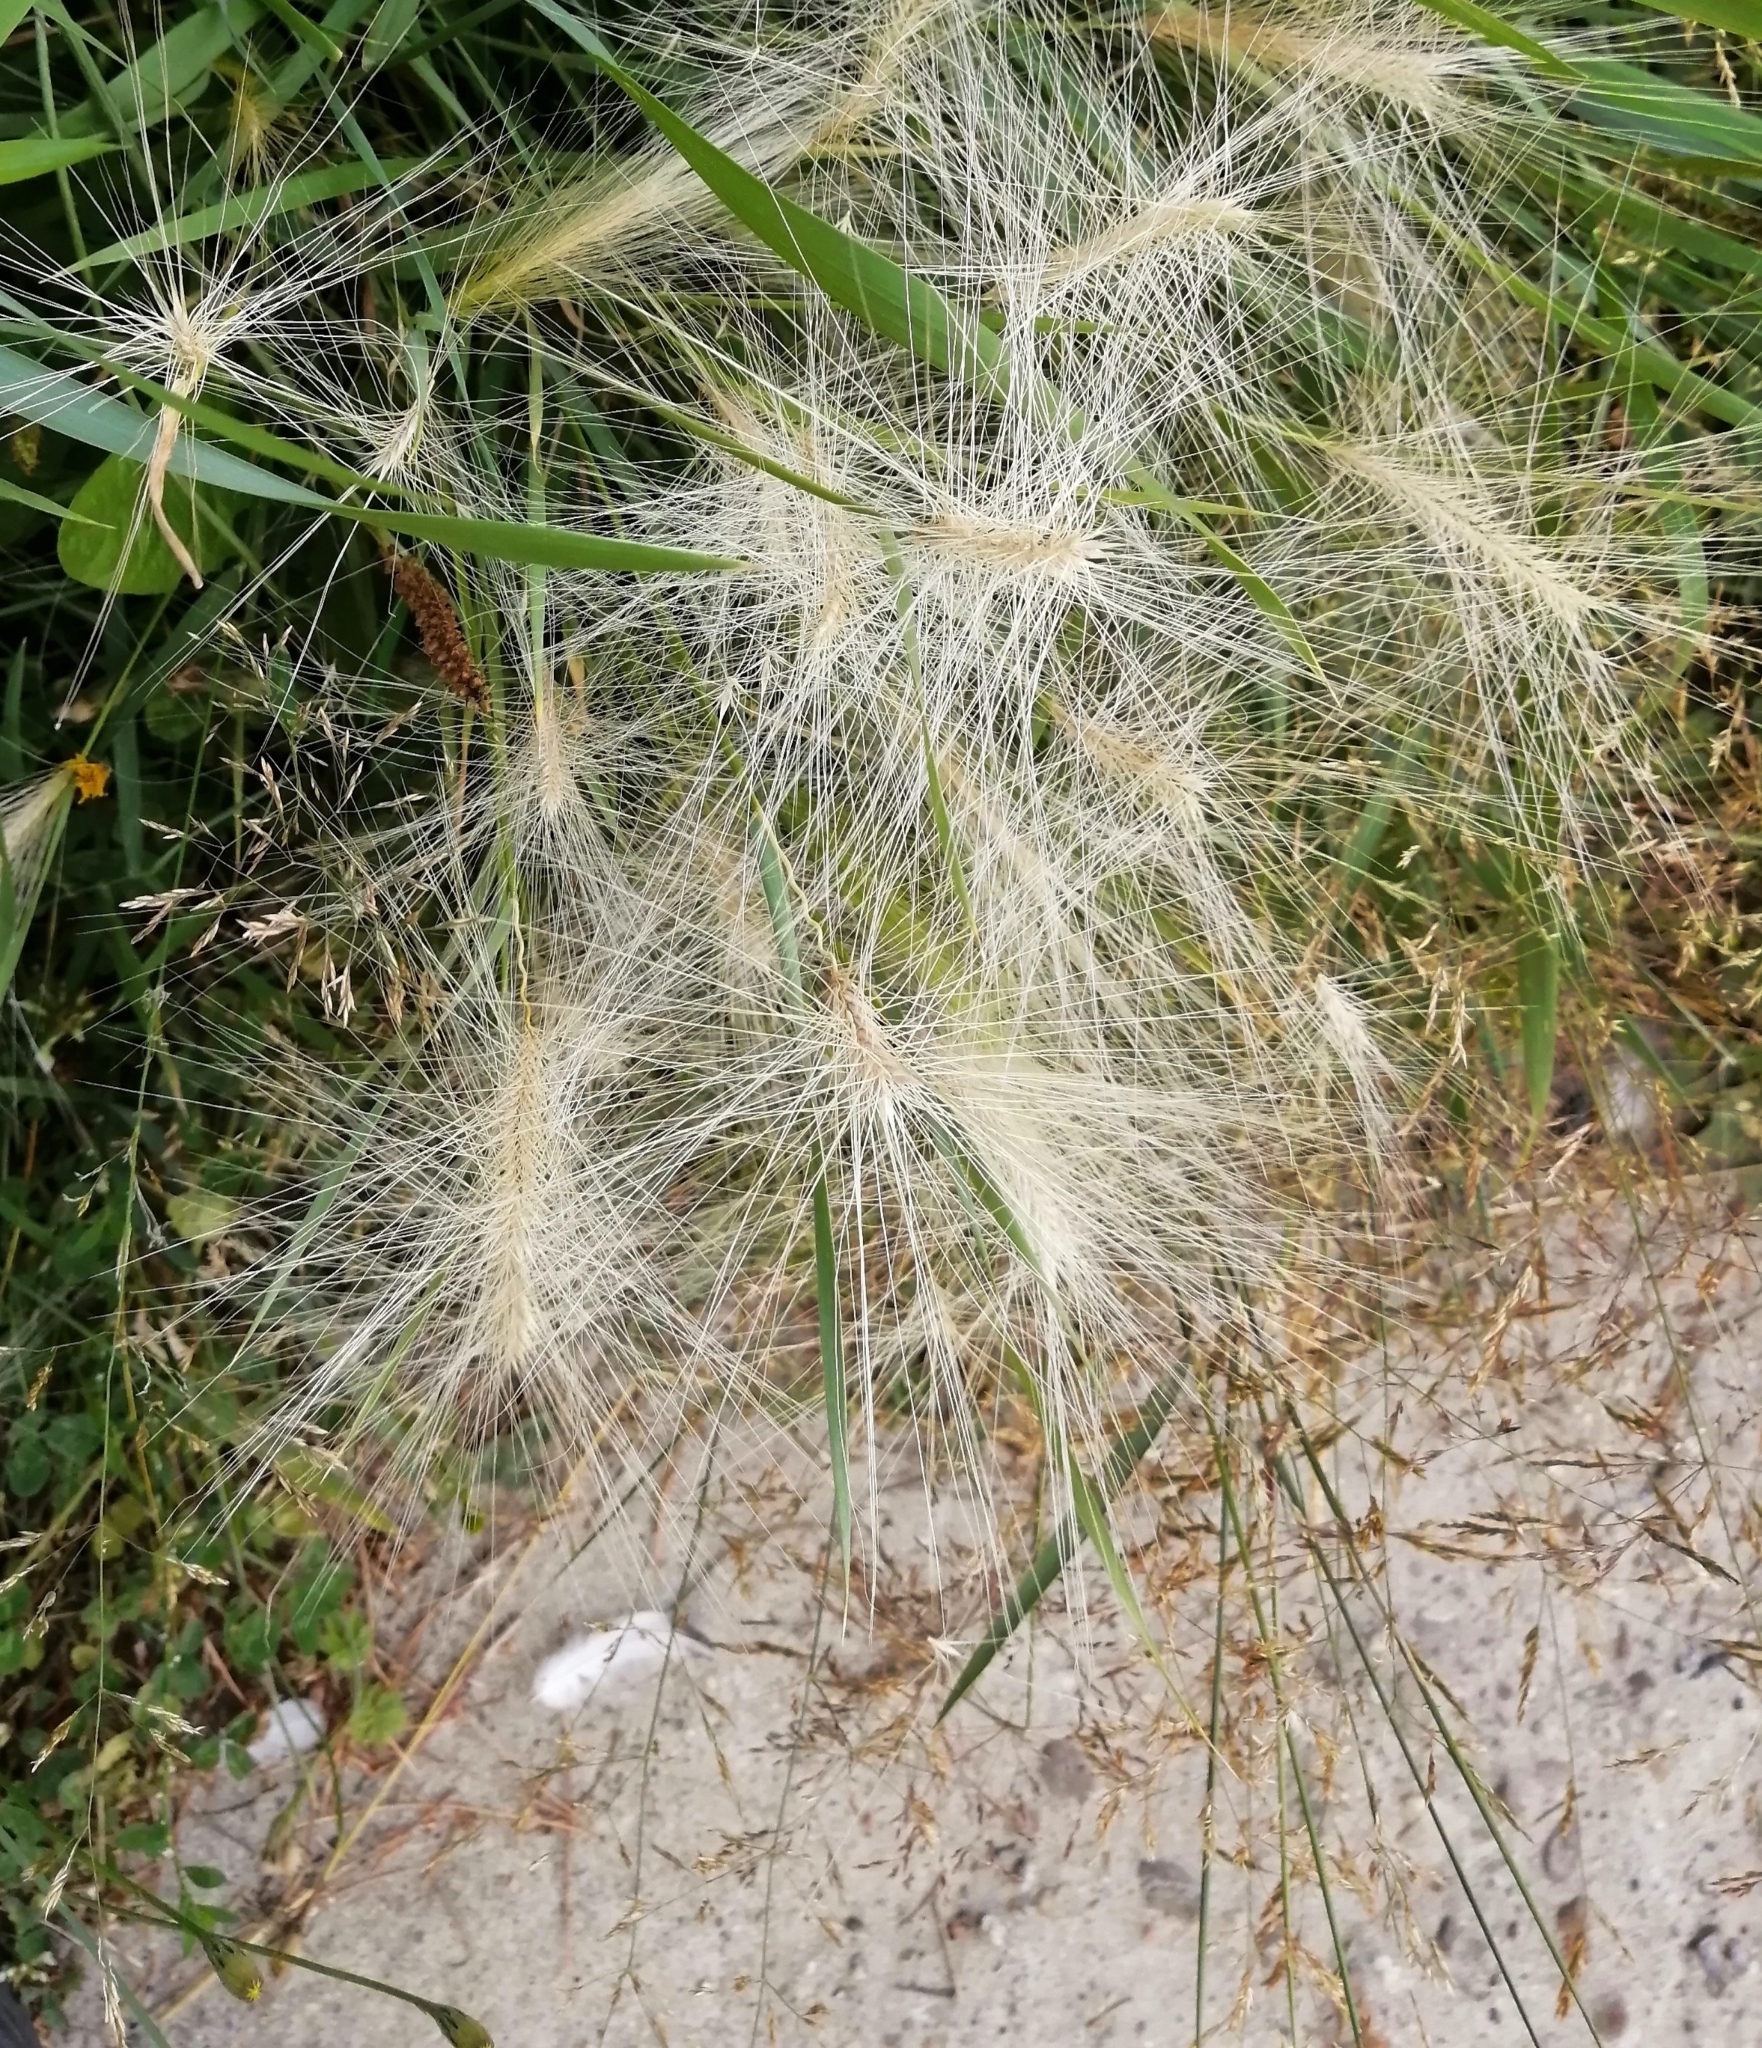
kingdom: Plantae
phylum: Tracheophyta
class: Liliopsida
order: Poales
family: Poaceae
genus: Hordeum
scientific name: Hordeum jubatum
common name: Foxtail barley
